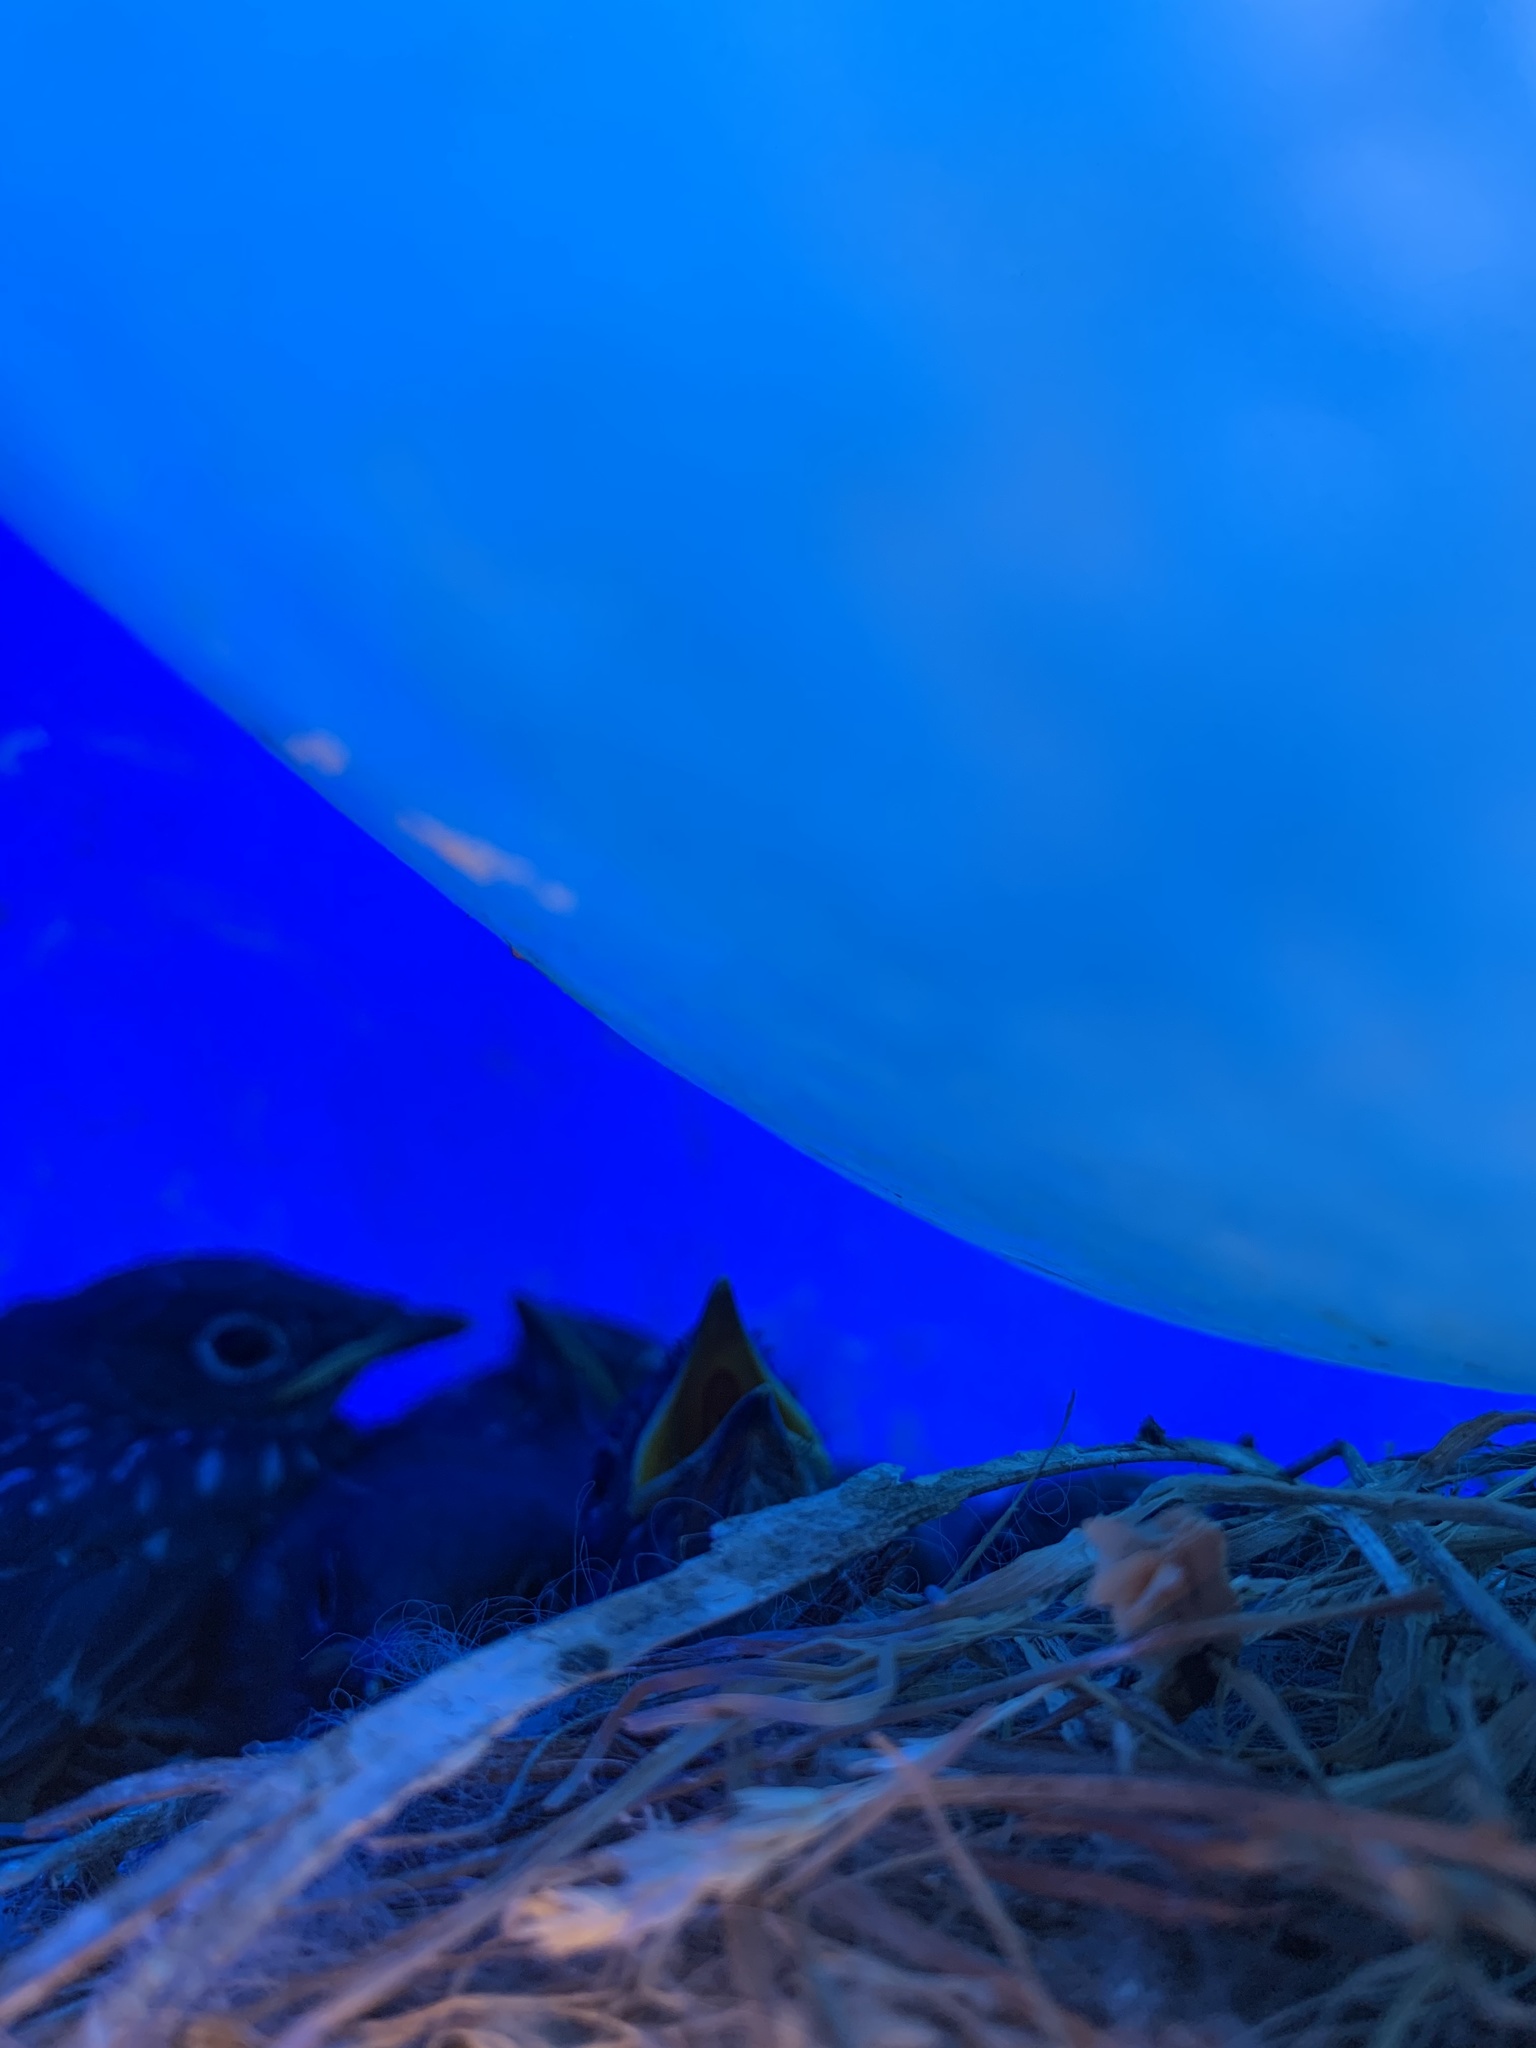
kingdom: Animalia
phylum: Chordata
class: Aves
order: Passeriformes
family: Turdidae
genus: Sialia
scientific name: Sialia mexicana
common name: Western bluebird
